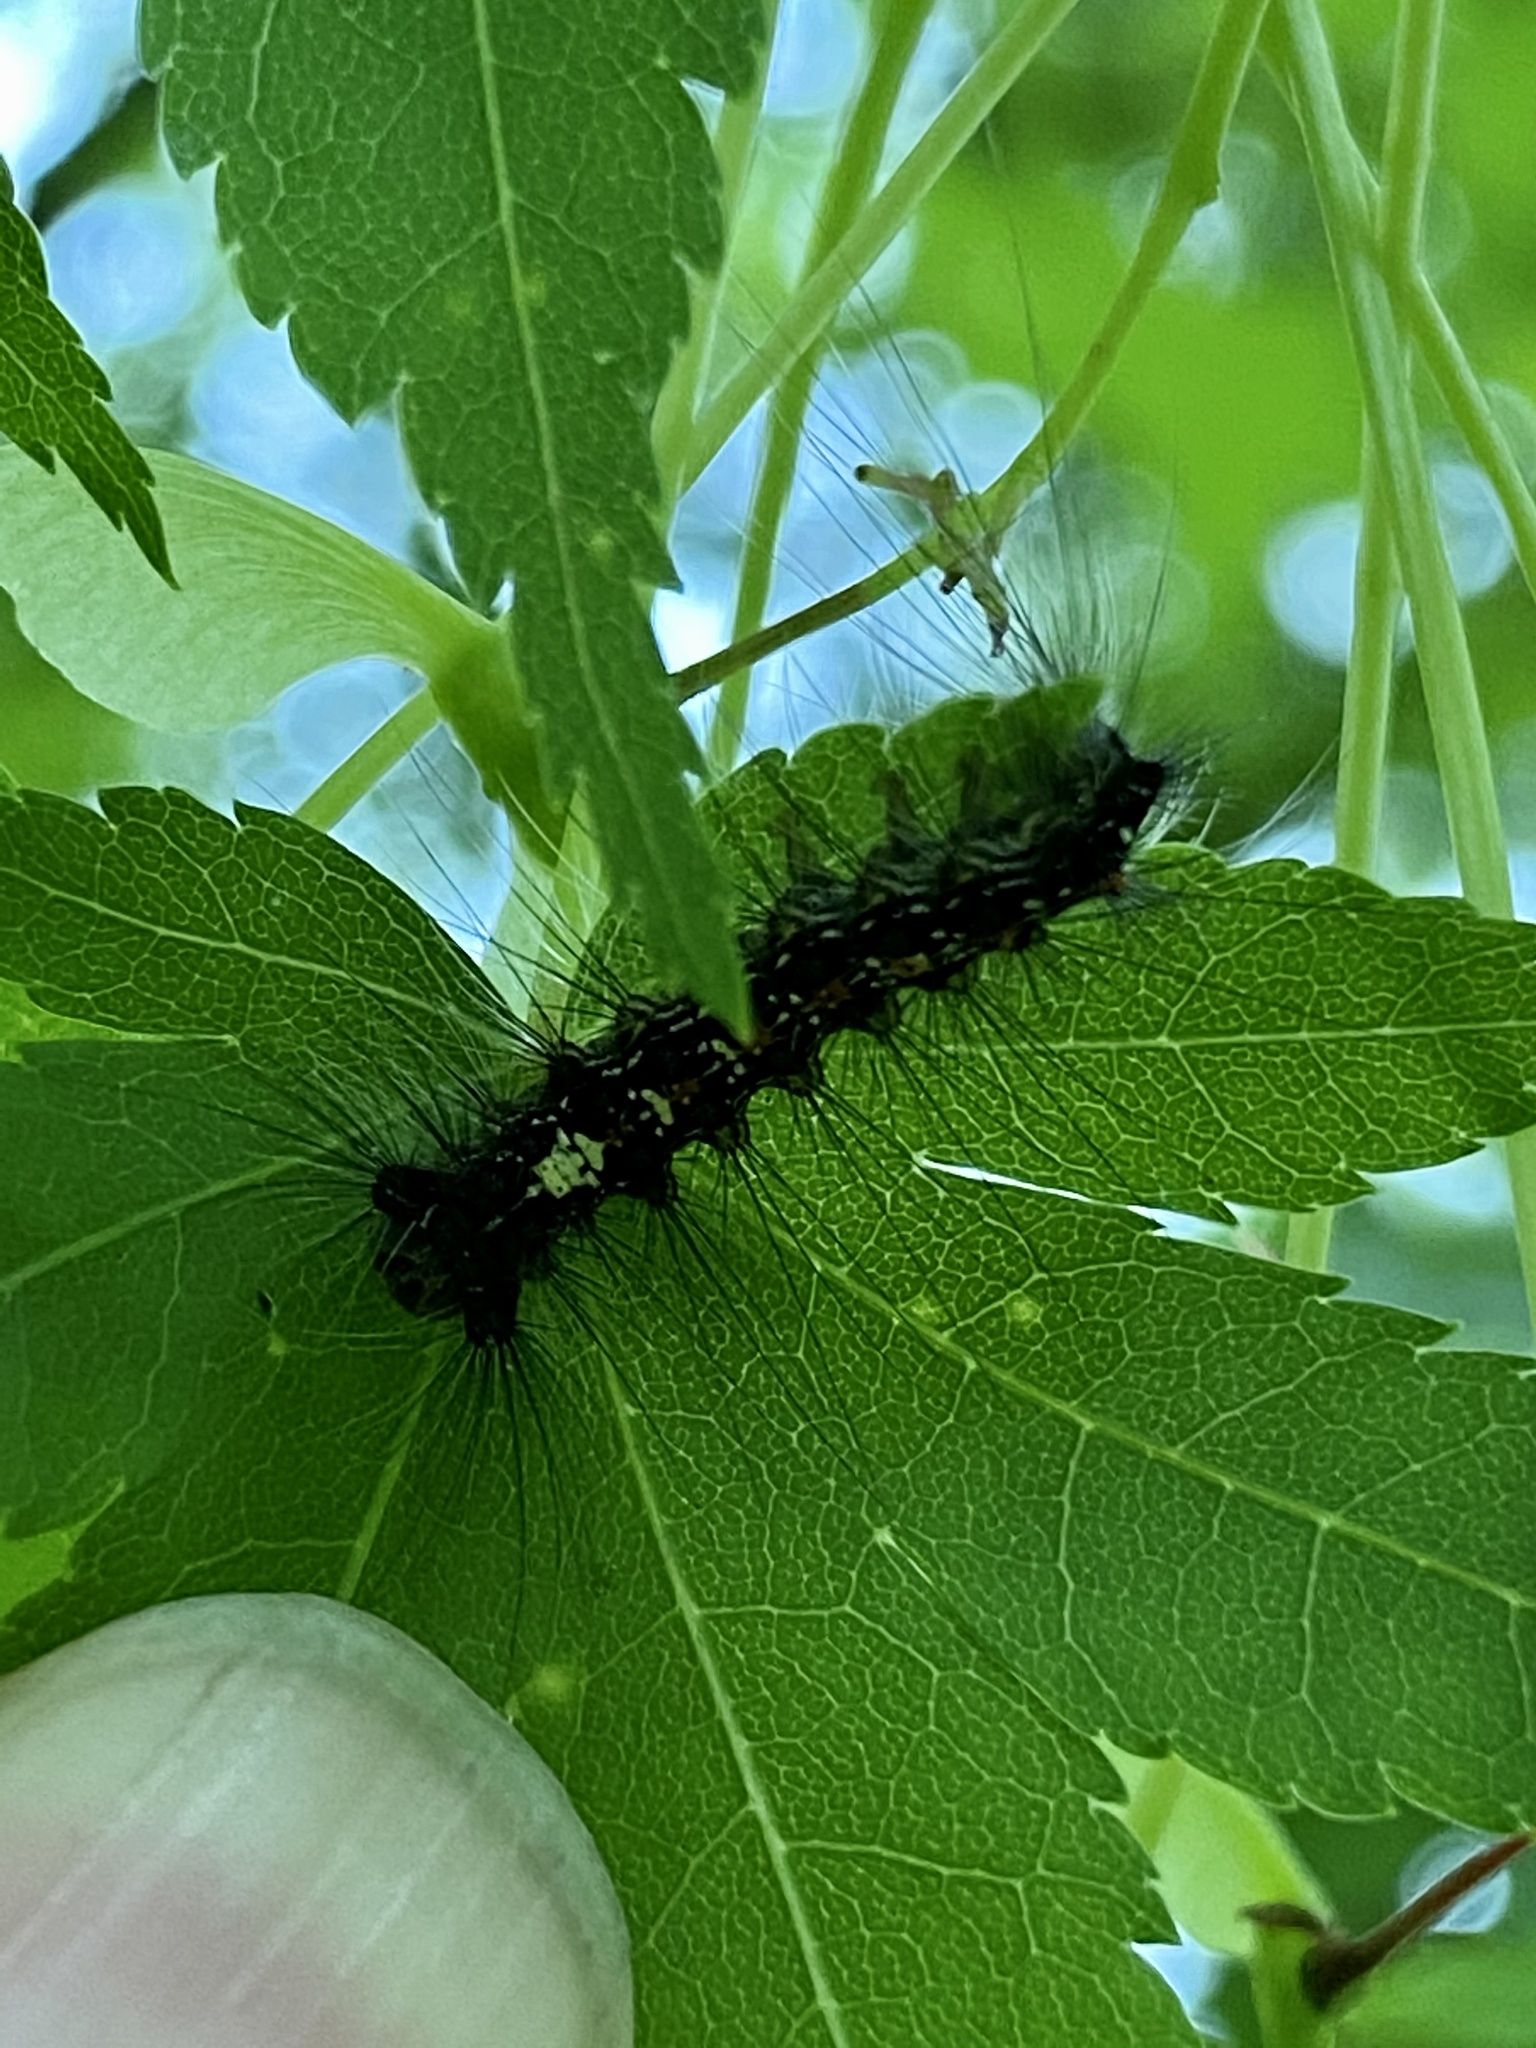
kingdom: Animalia
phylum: Arthropoda
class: Insecta
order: Lepidoptera
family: Erebidae
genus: Lymantria
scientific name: Lymantria dispar
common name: Gypsy moth
